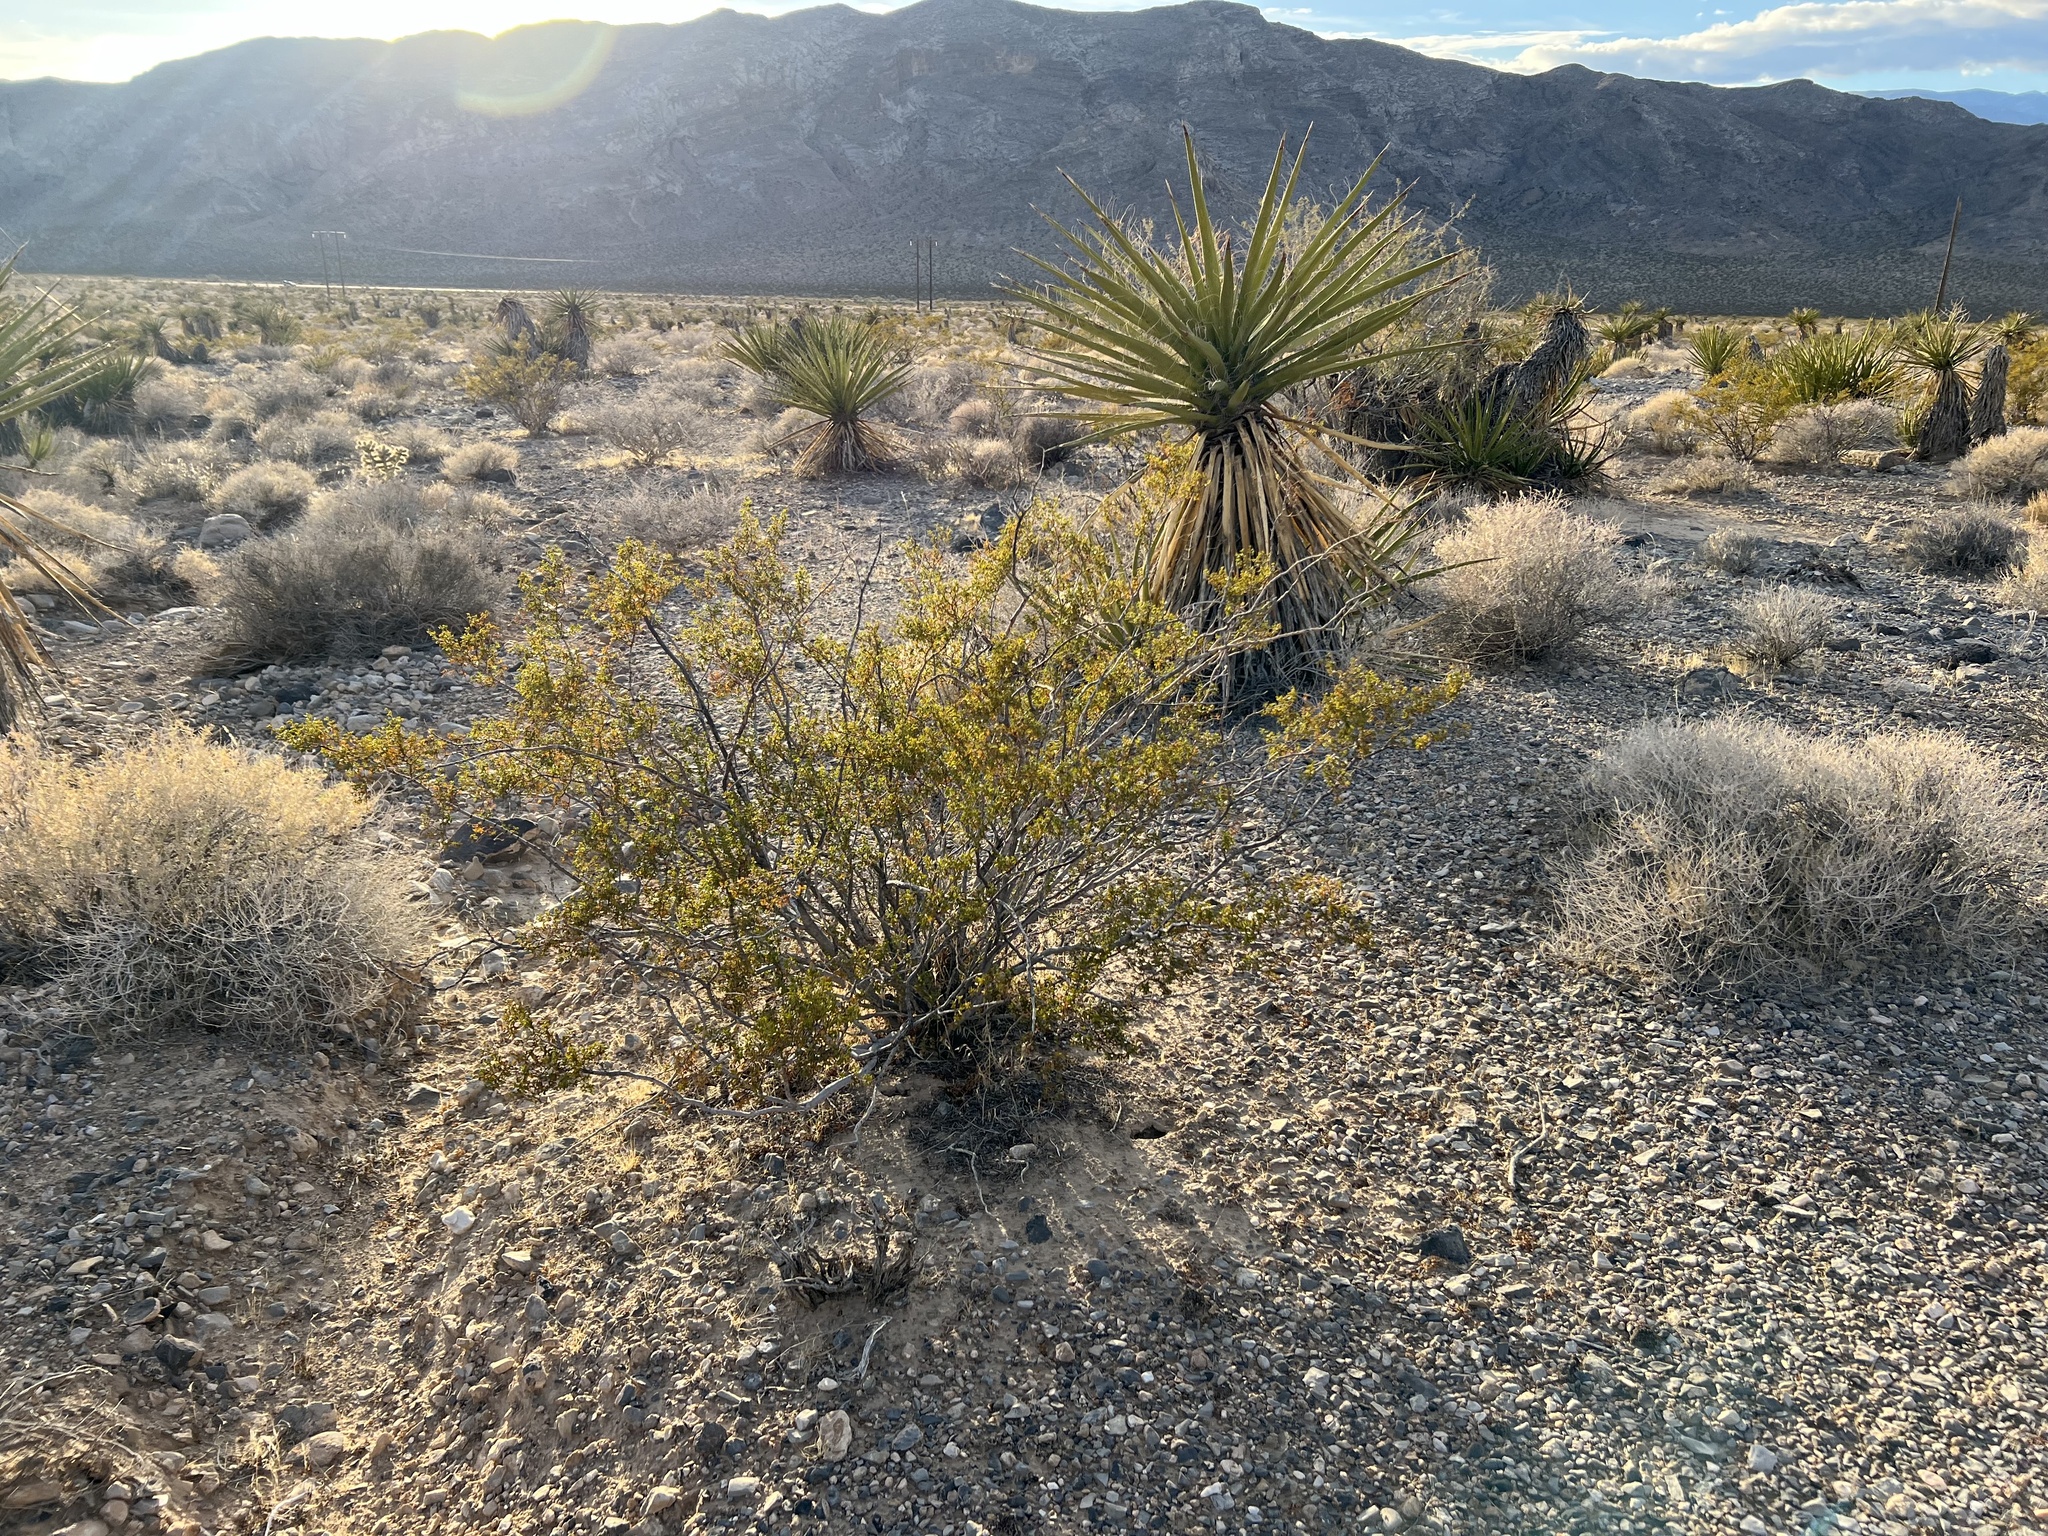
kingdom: Plantae
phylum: Tracheophyta
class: Magnoliopsida
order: Zygophyllales
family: Zygophyllaceae
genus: Larrea
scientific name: Larrea tridentata
